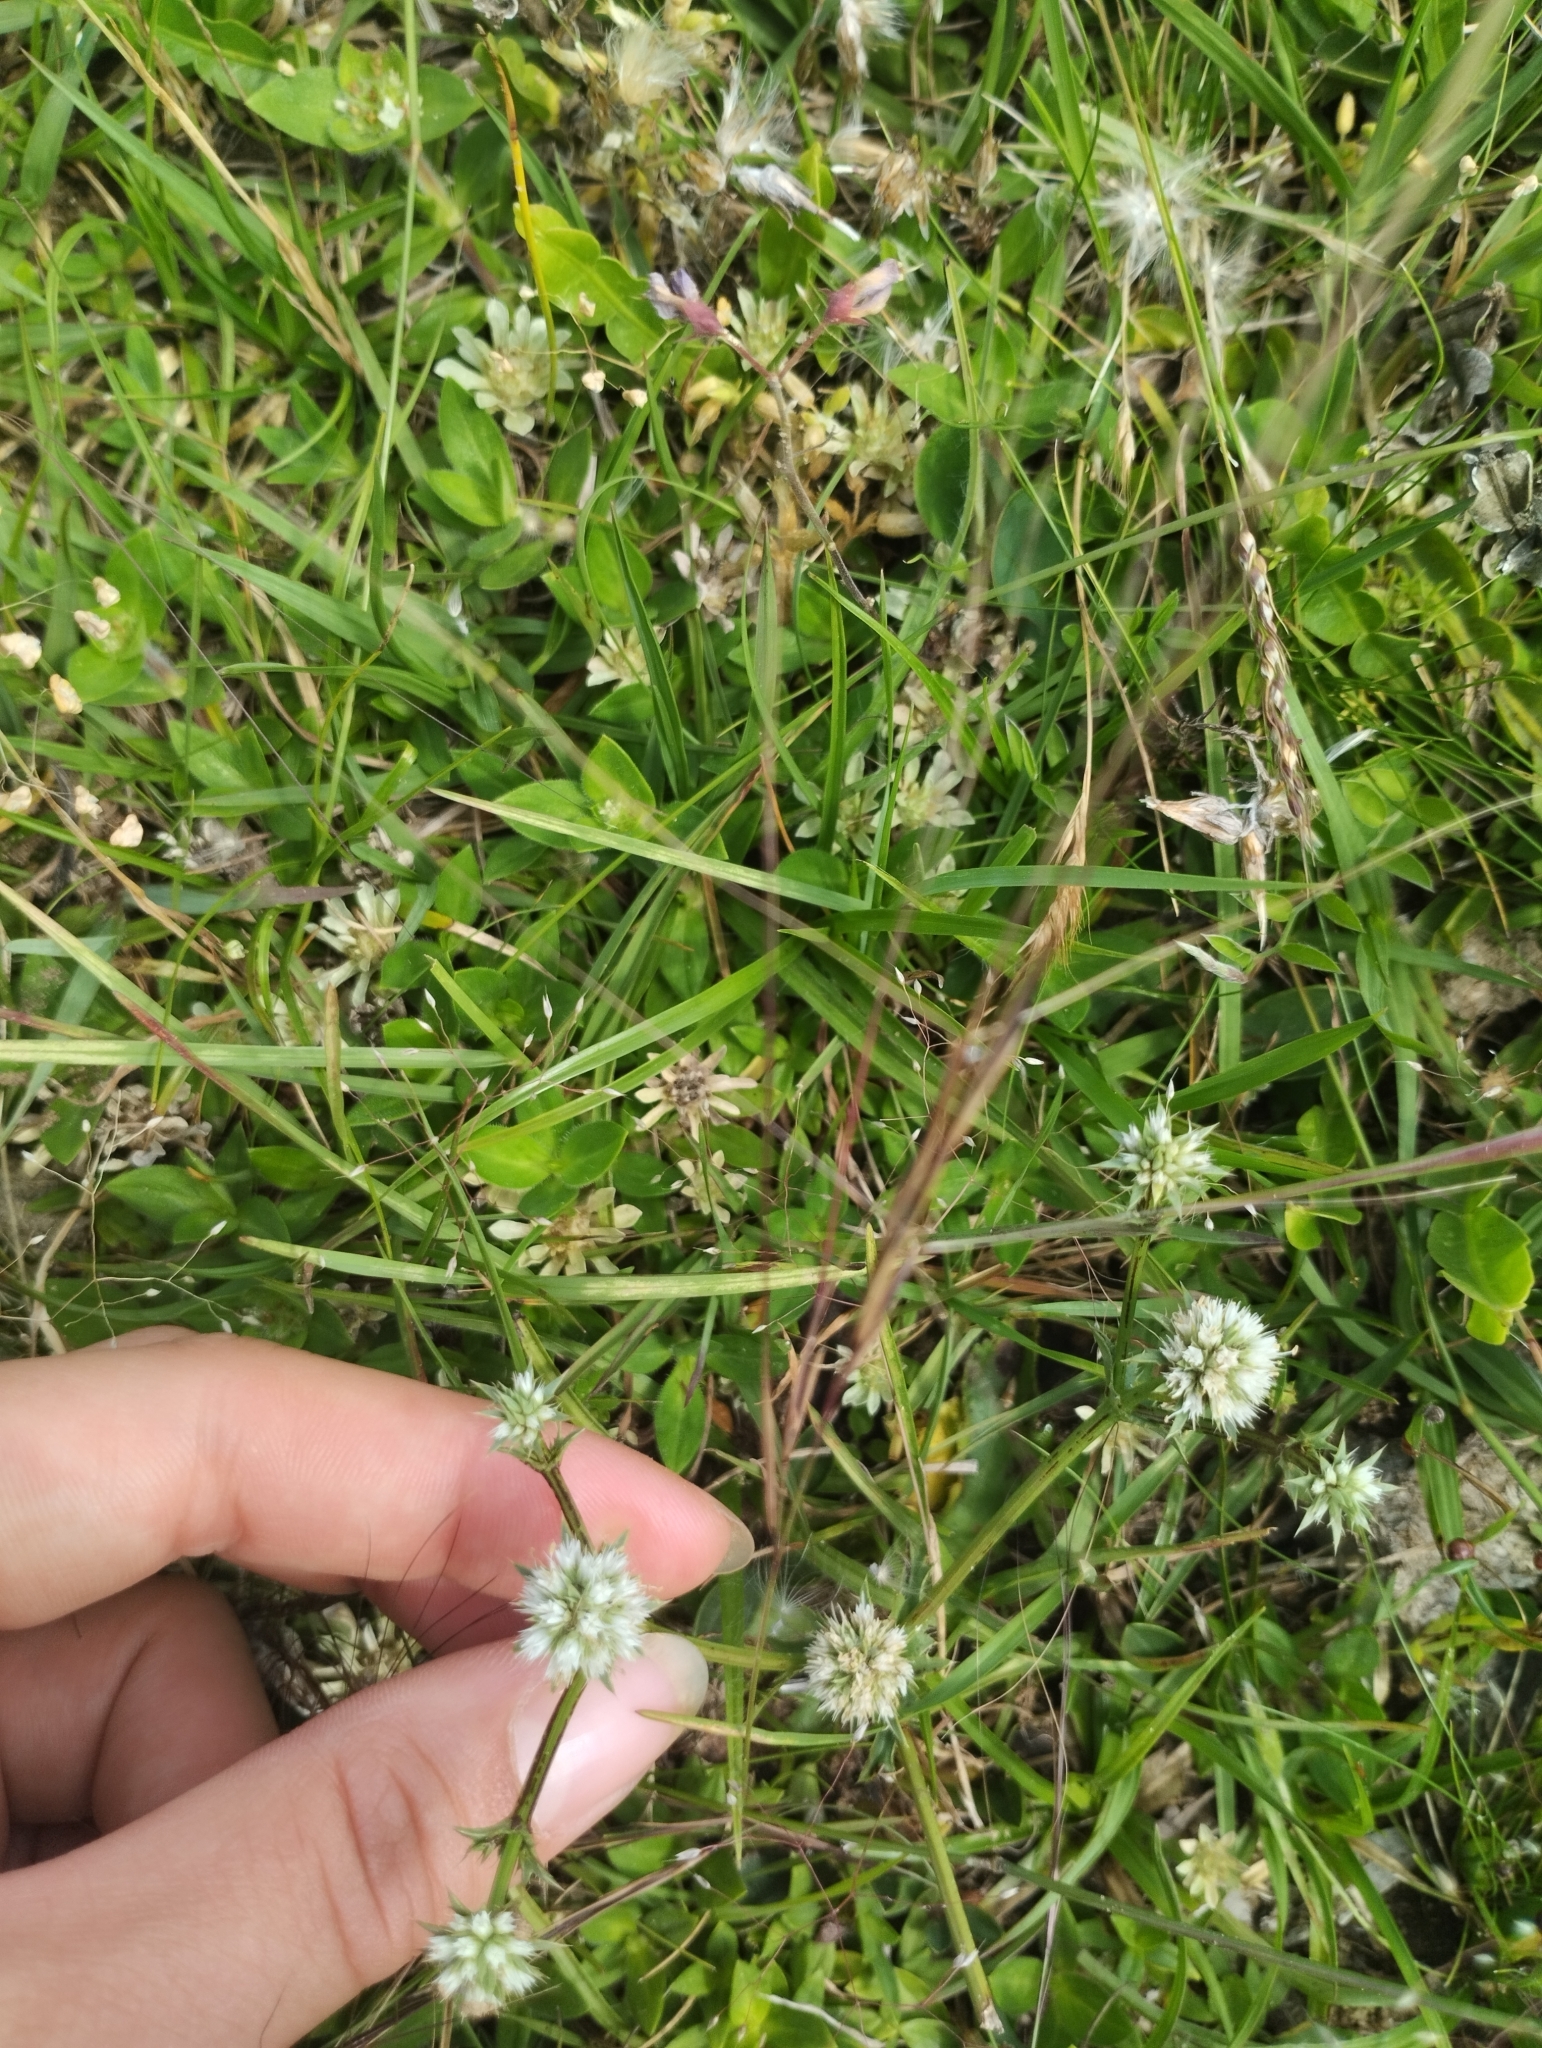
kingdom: Plantae
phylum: Tracheophyta
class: Magnoliopsida
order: Apiales
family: Apiaceae
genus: Eryngium
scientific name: Eryngium nudicaule
